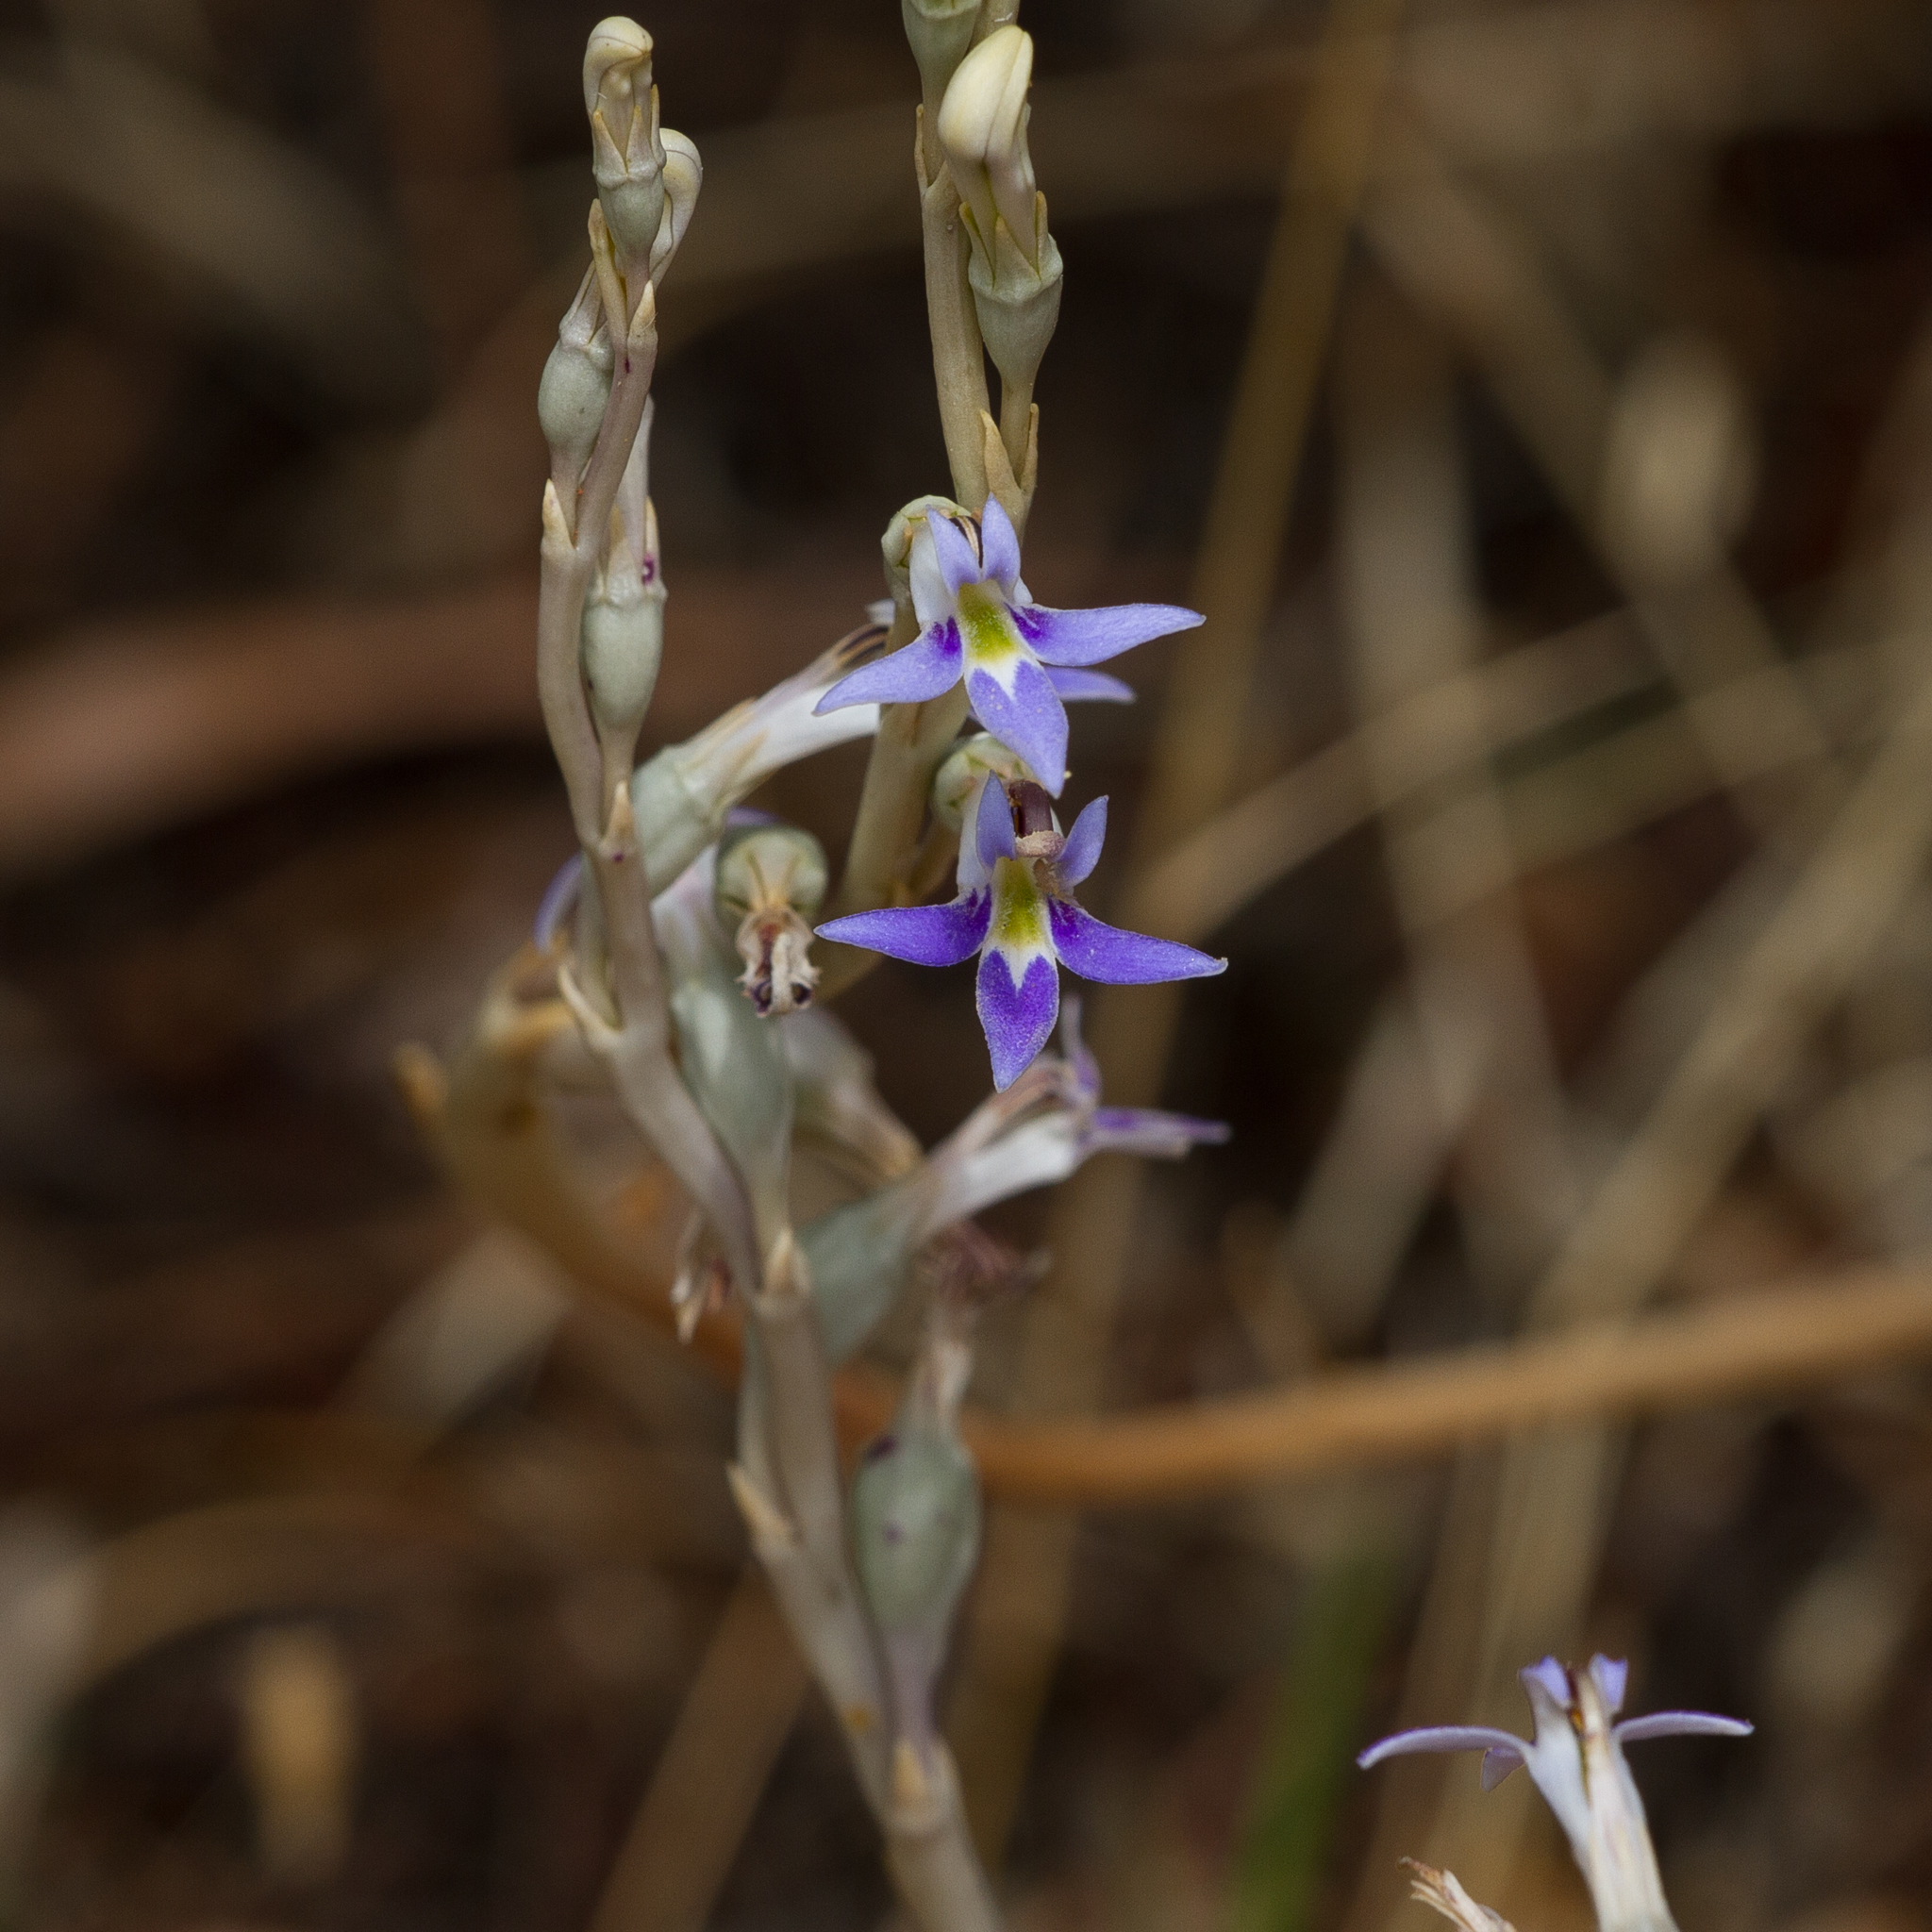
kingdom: Plantae
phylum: Tracheophyta
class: Magnoliopsida
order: Asterales
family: Campanulaceae
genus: Lobelia
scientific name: Lobelia gibbosa
